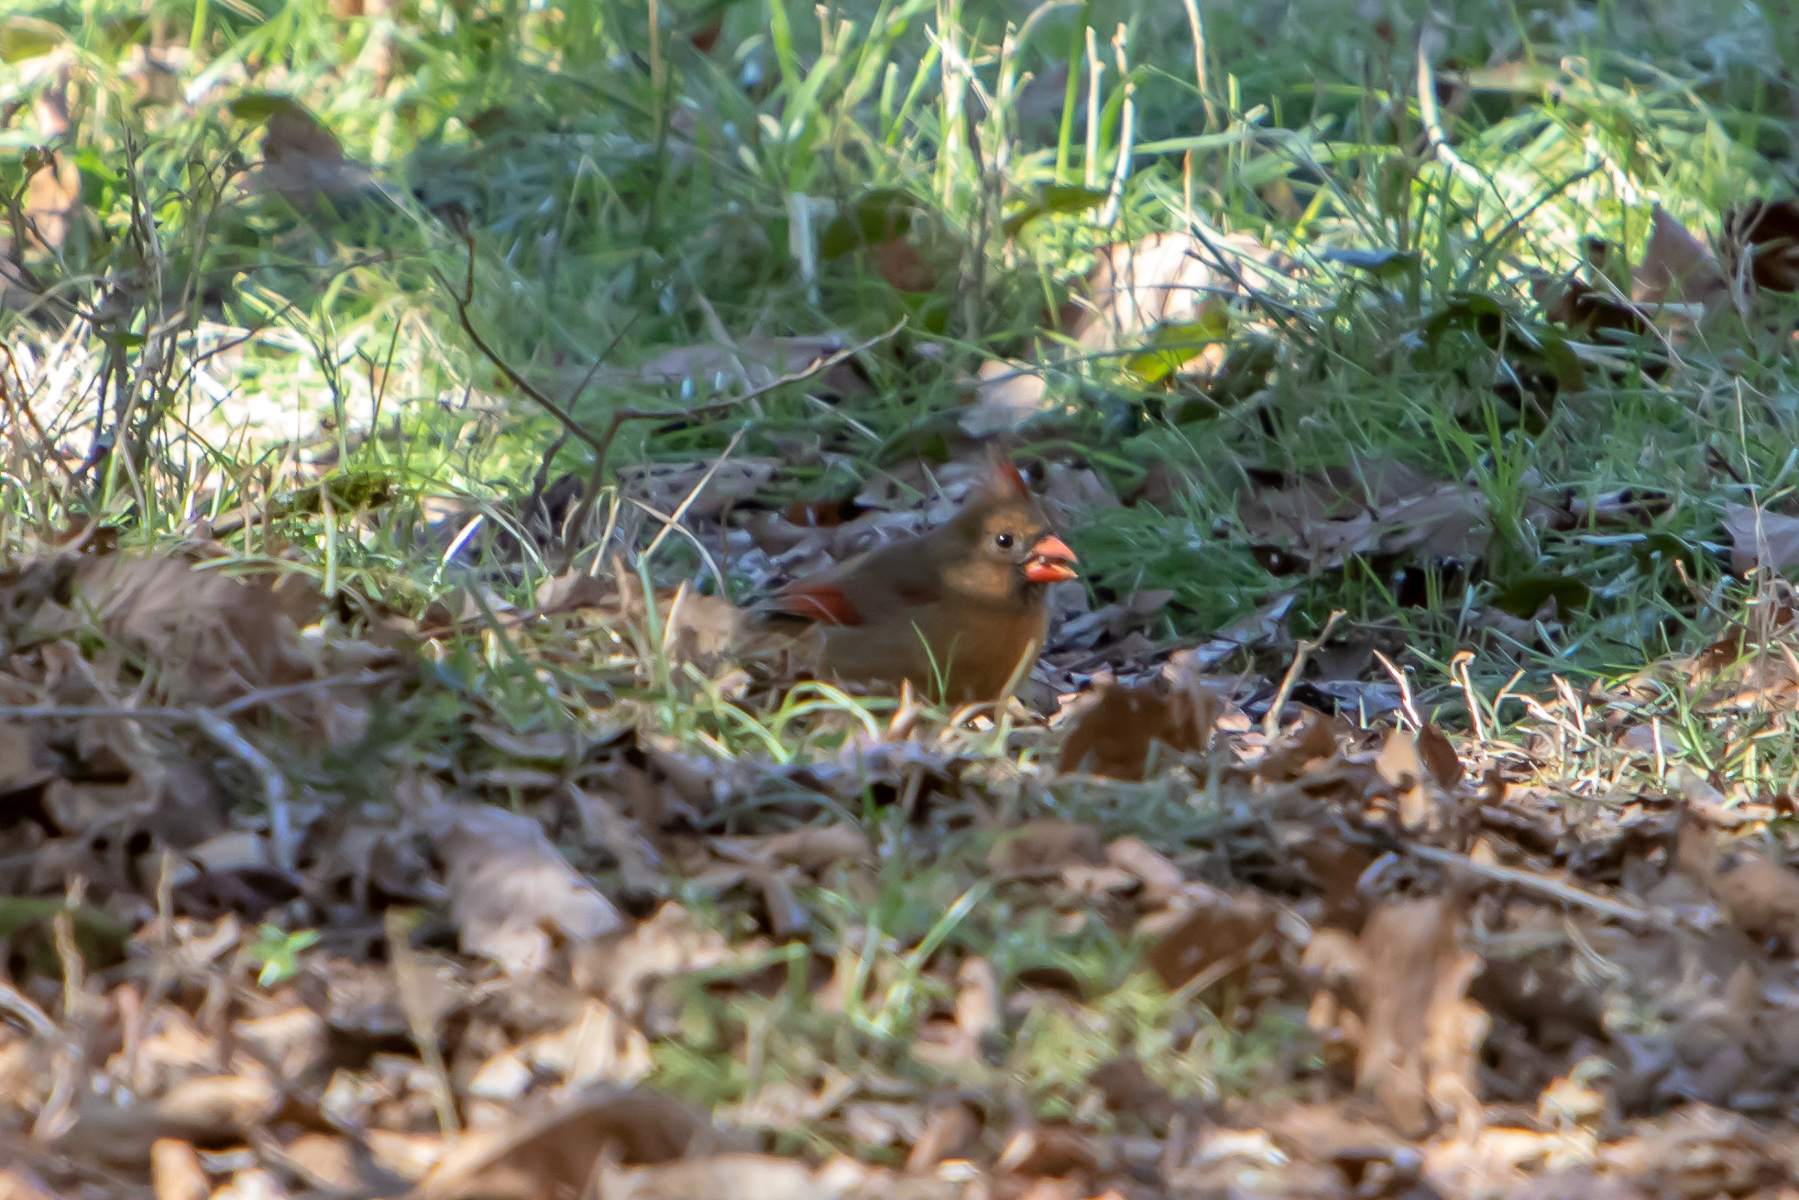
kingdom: Animalia
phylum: Chordata
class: Aves
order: Passeriformes
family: Cardinalidae
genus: Cardinalis
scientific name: Cardinalis cardinalis
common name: Northern cardinal
